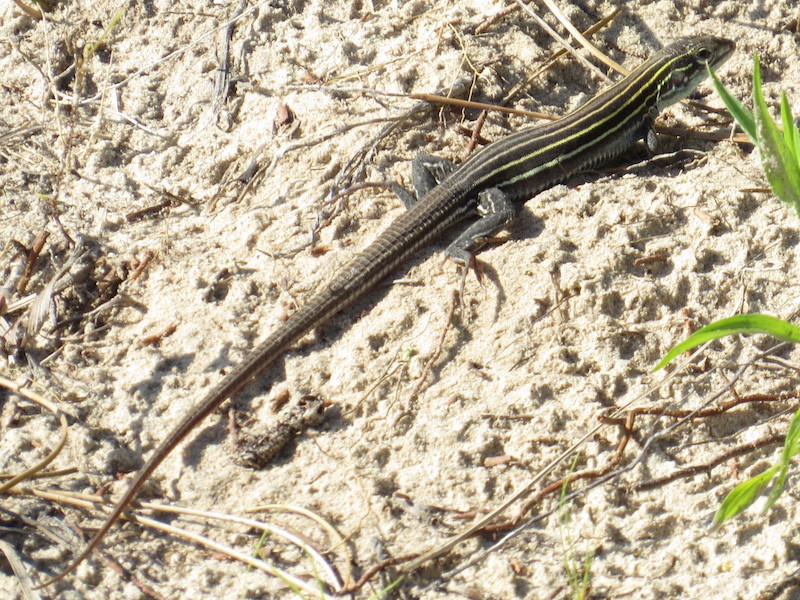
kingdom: Animalia
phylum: Chordata
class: Squamata
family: Teiidae
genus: Aspidoscelis
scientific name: Aspidoscelis sexlineatus
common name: Six-lined racerunner
